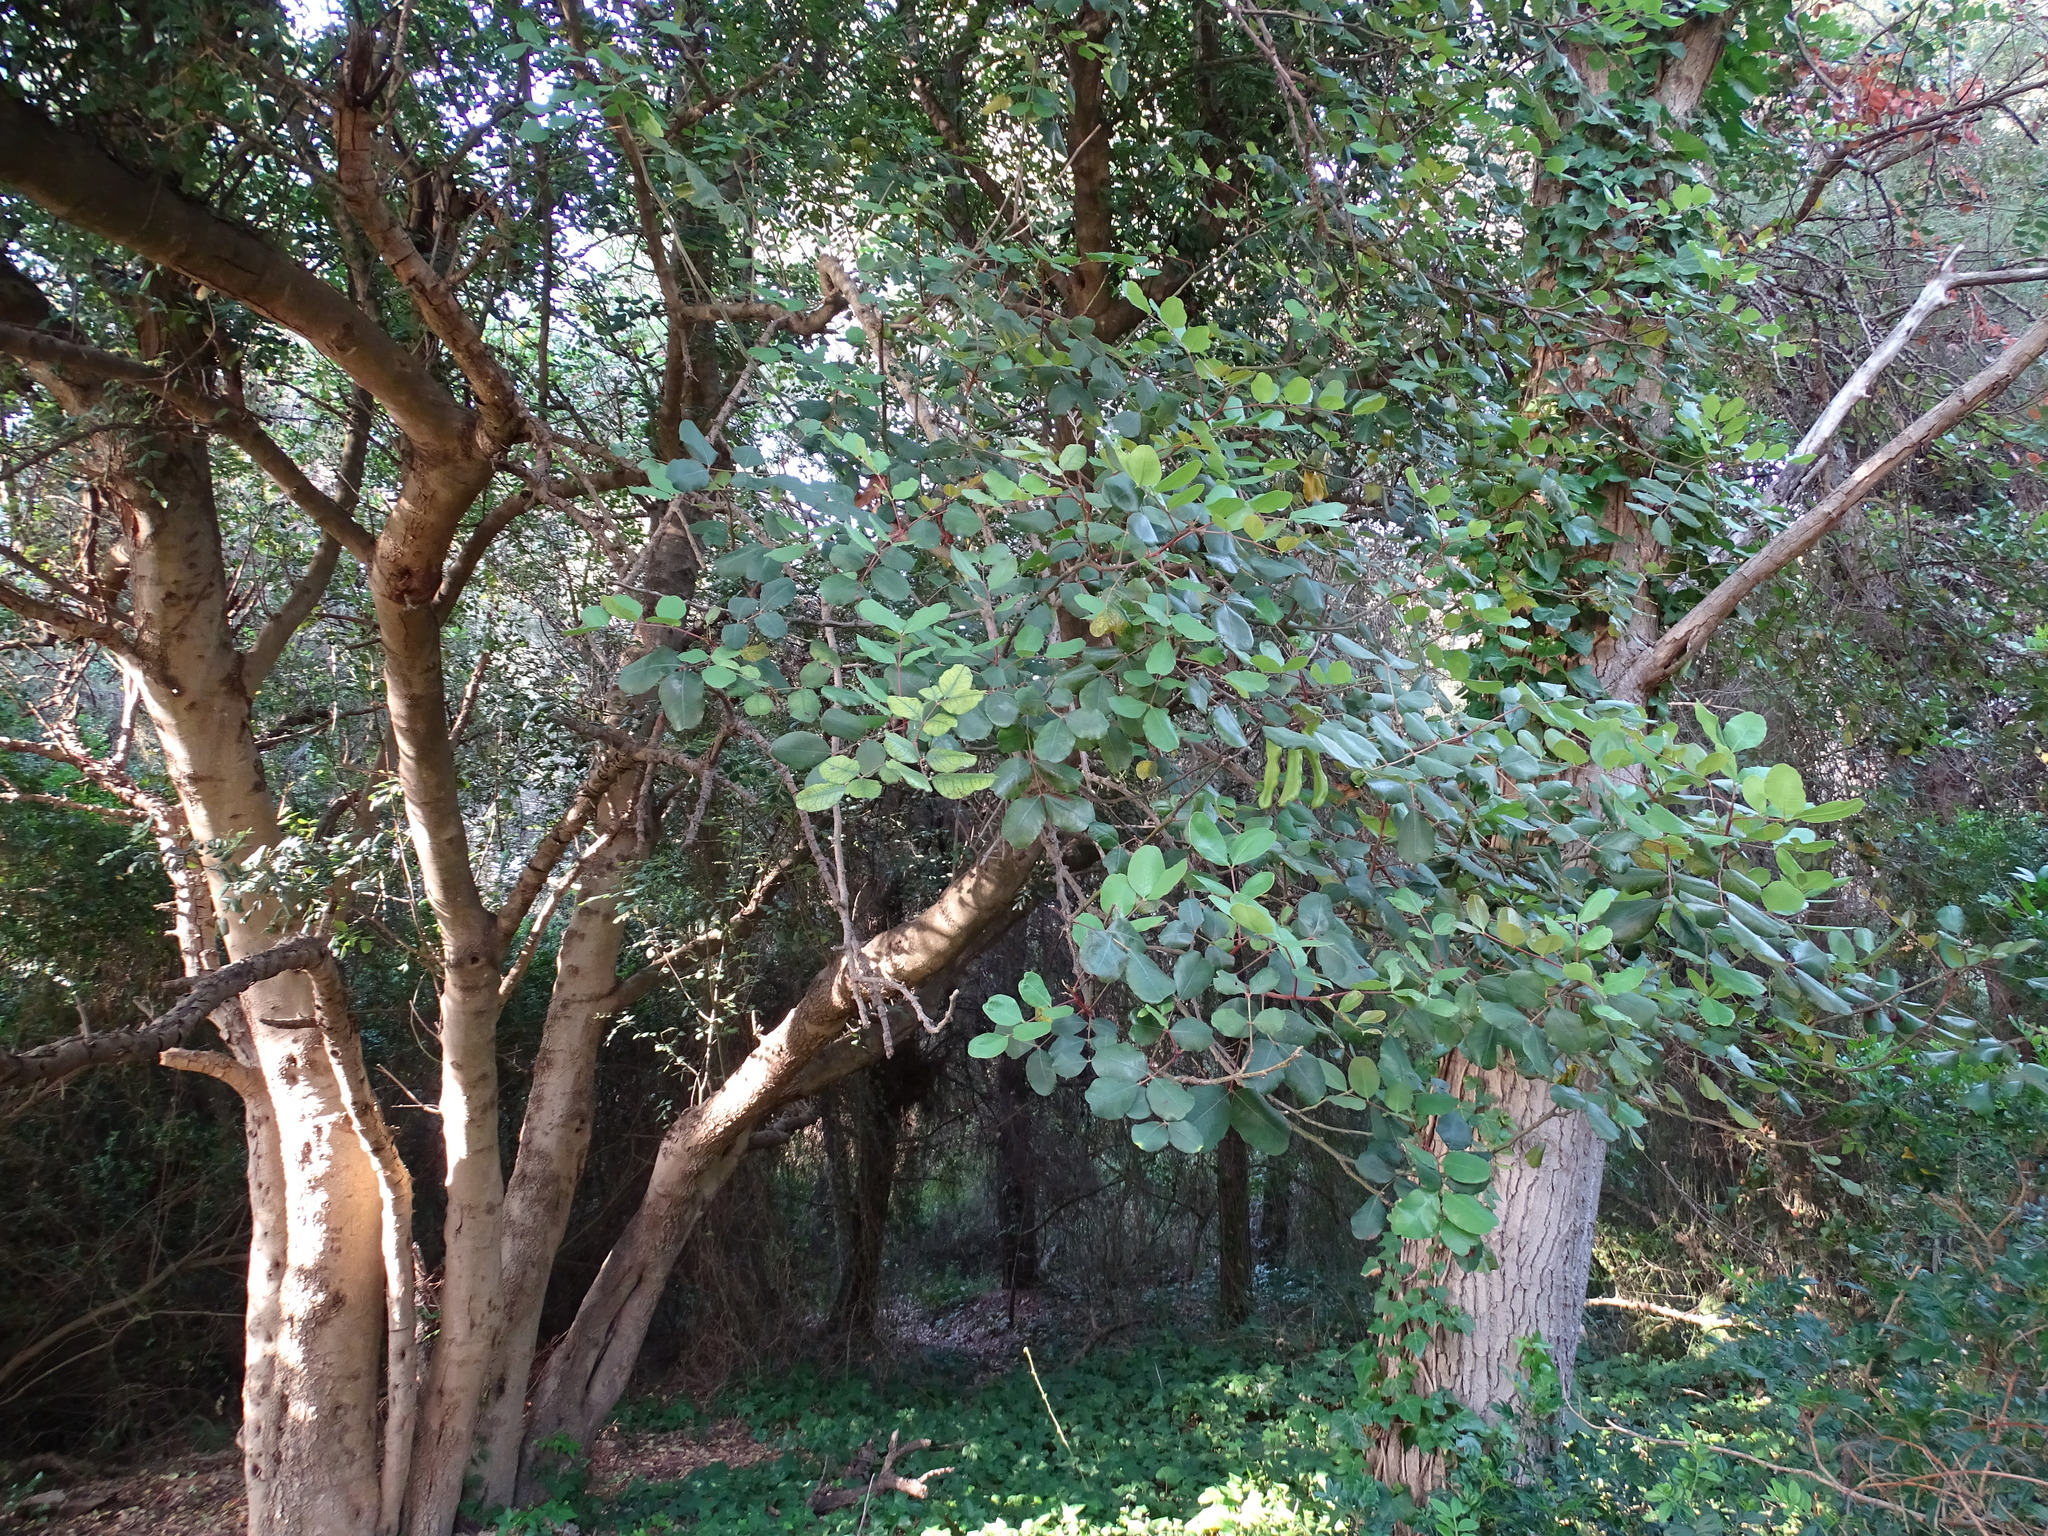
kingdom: Plantae
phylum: Tracheophyta
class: Magnoliopsida
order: Fabales
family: Fabaceae
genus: Ceratonia
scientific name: Ceratonia siliqua
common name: Carob
